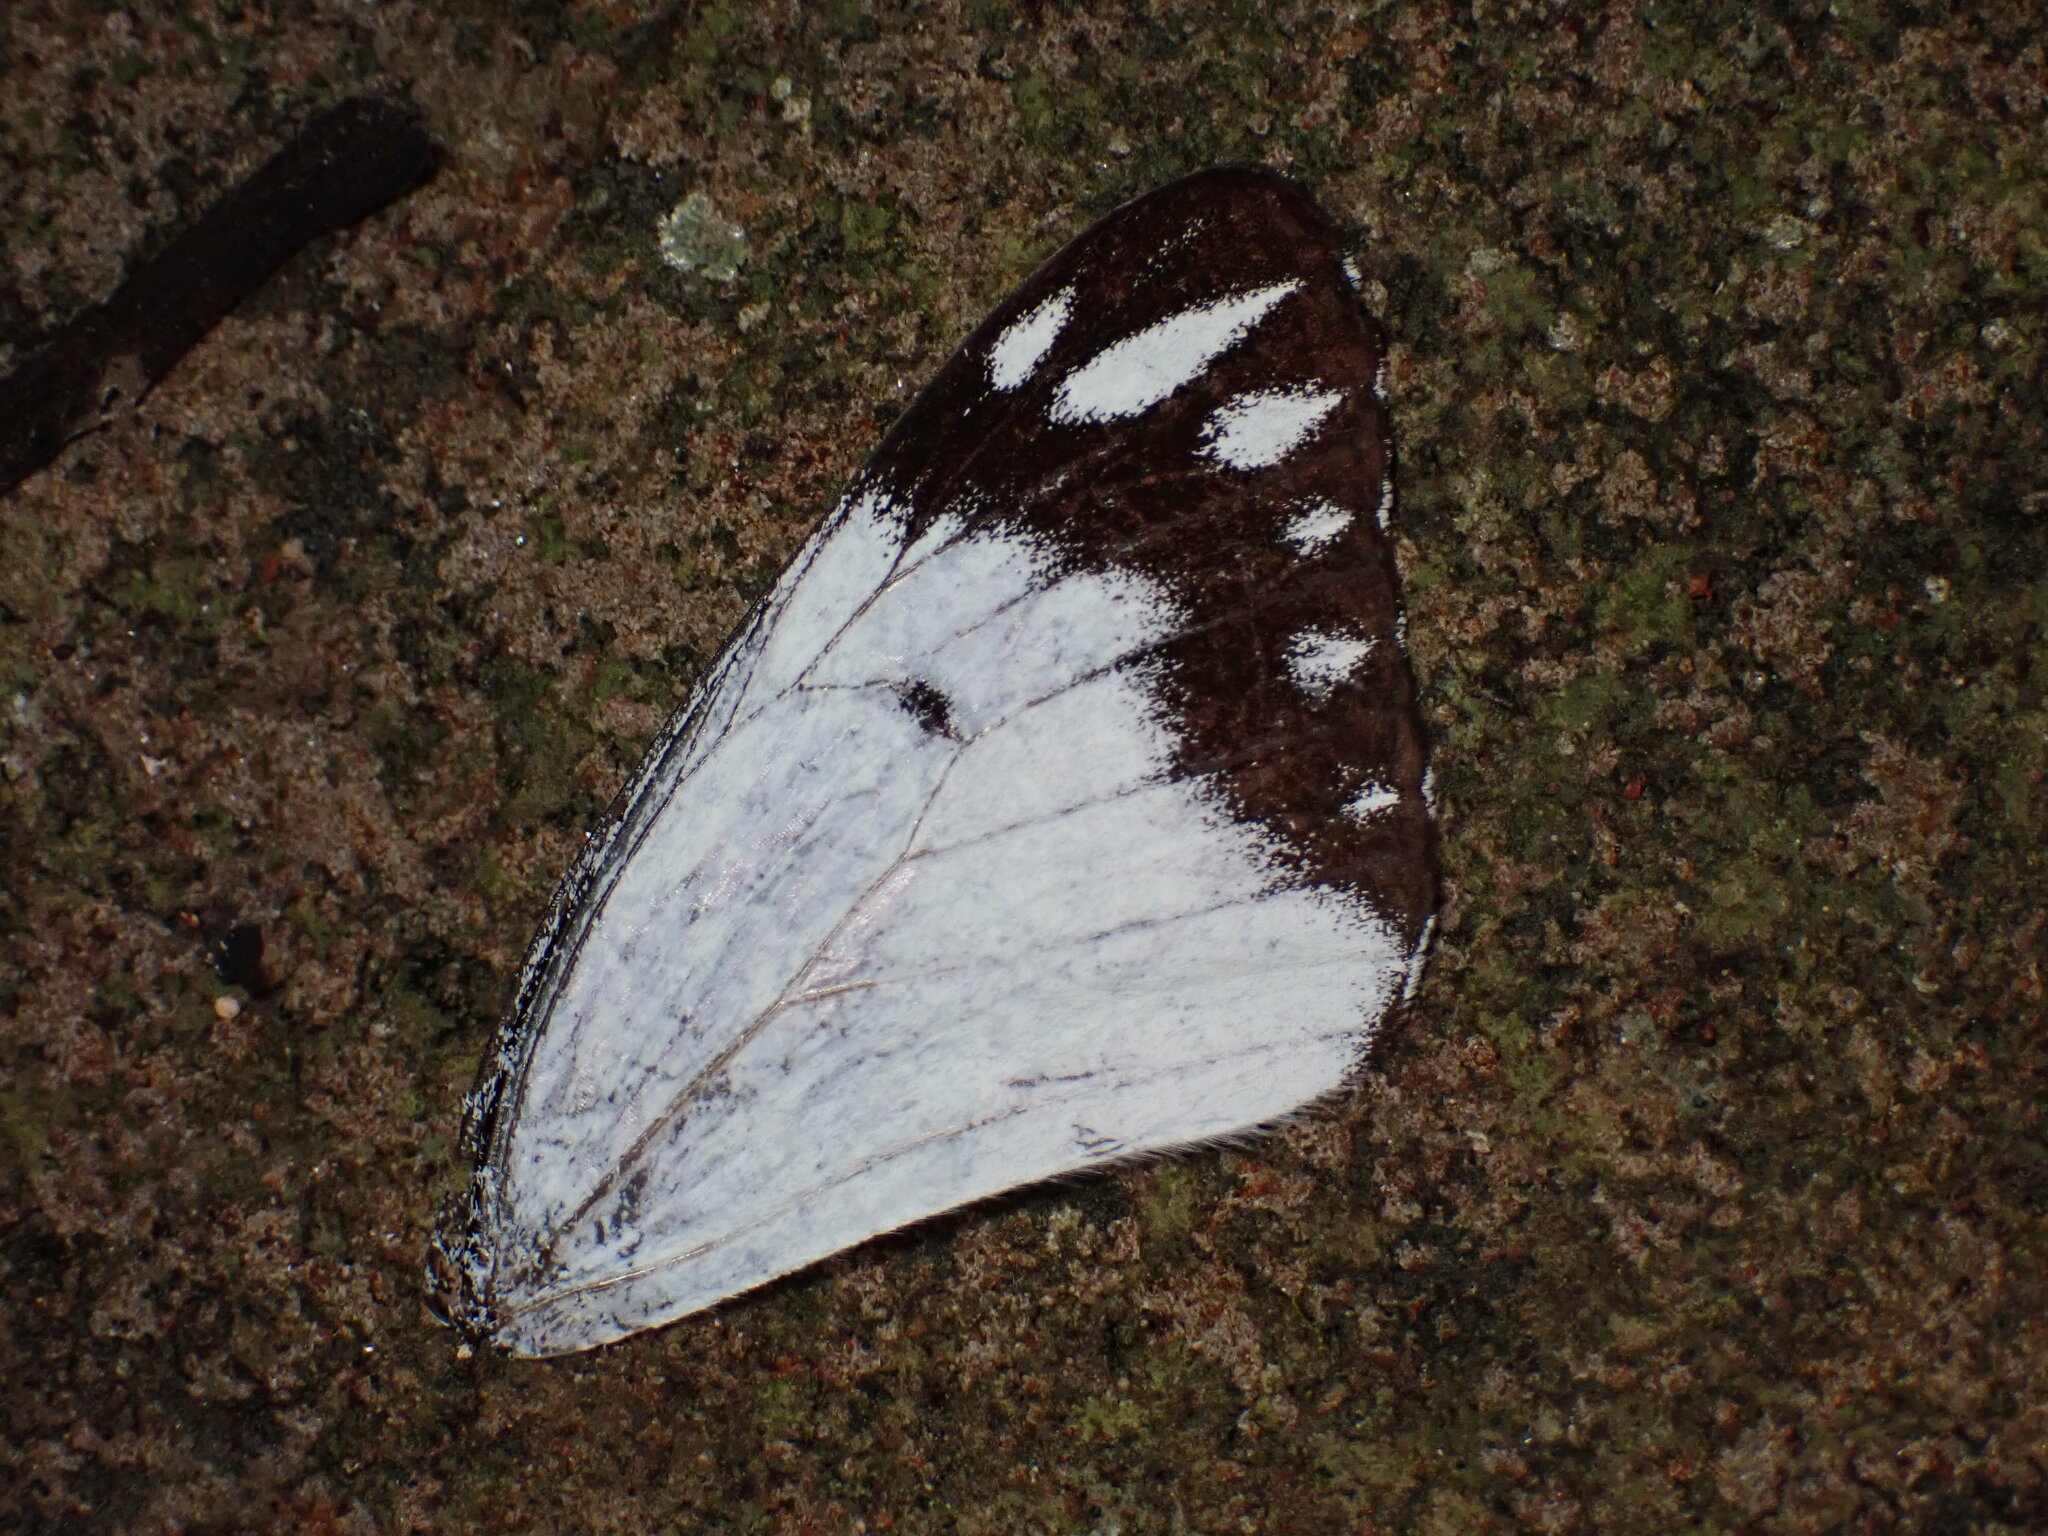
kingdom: Animalia
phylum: Arthropoda
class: Insecta
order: Lepidoptera
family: Pieridae
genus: Belenois
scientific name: Belenois java
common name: Caper white
